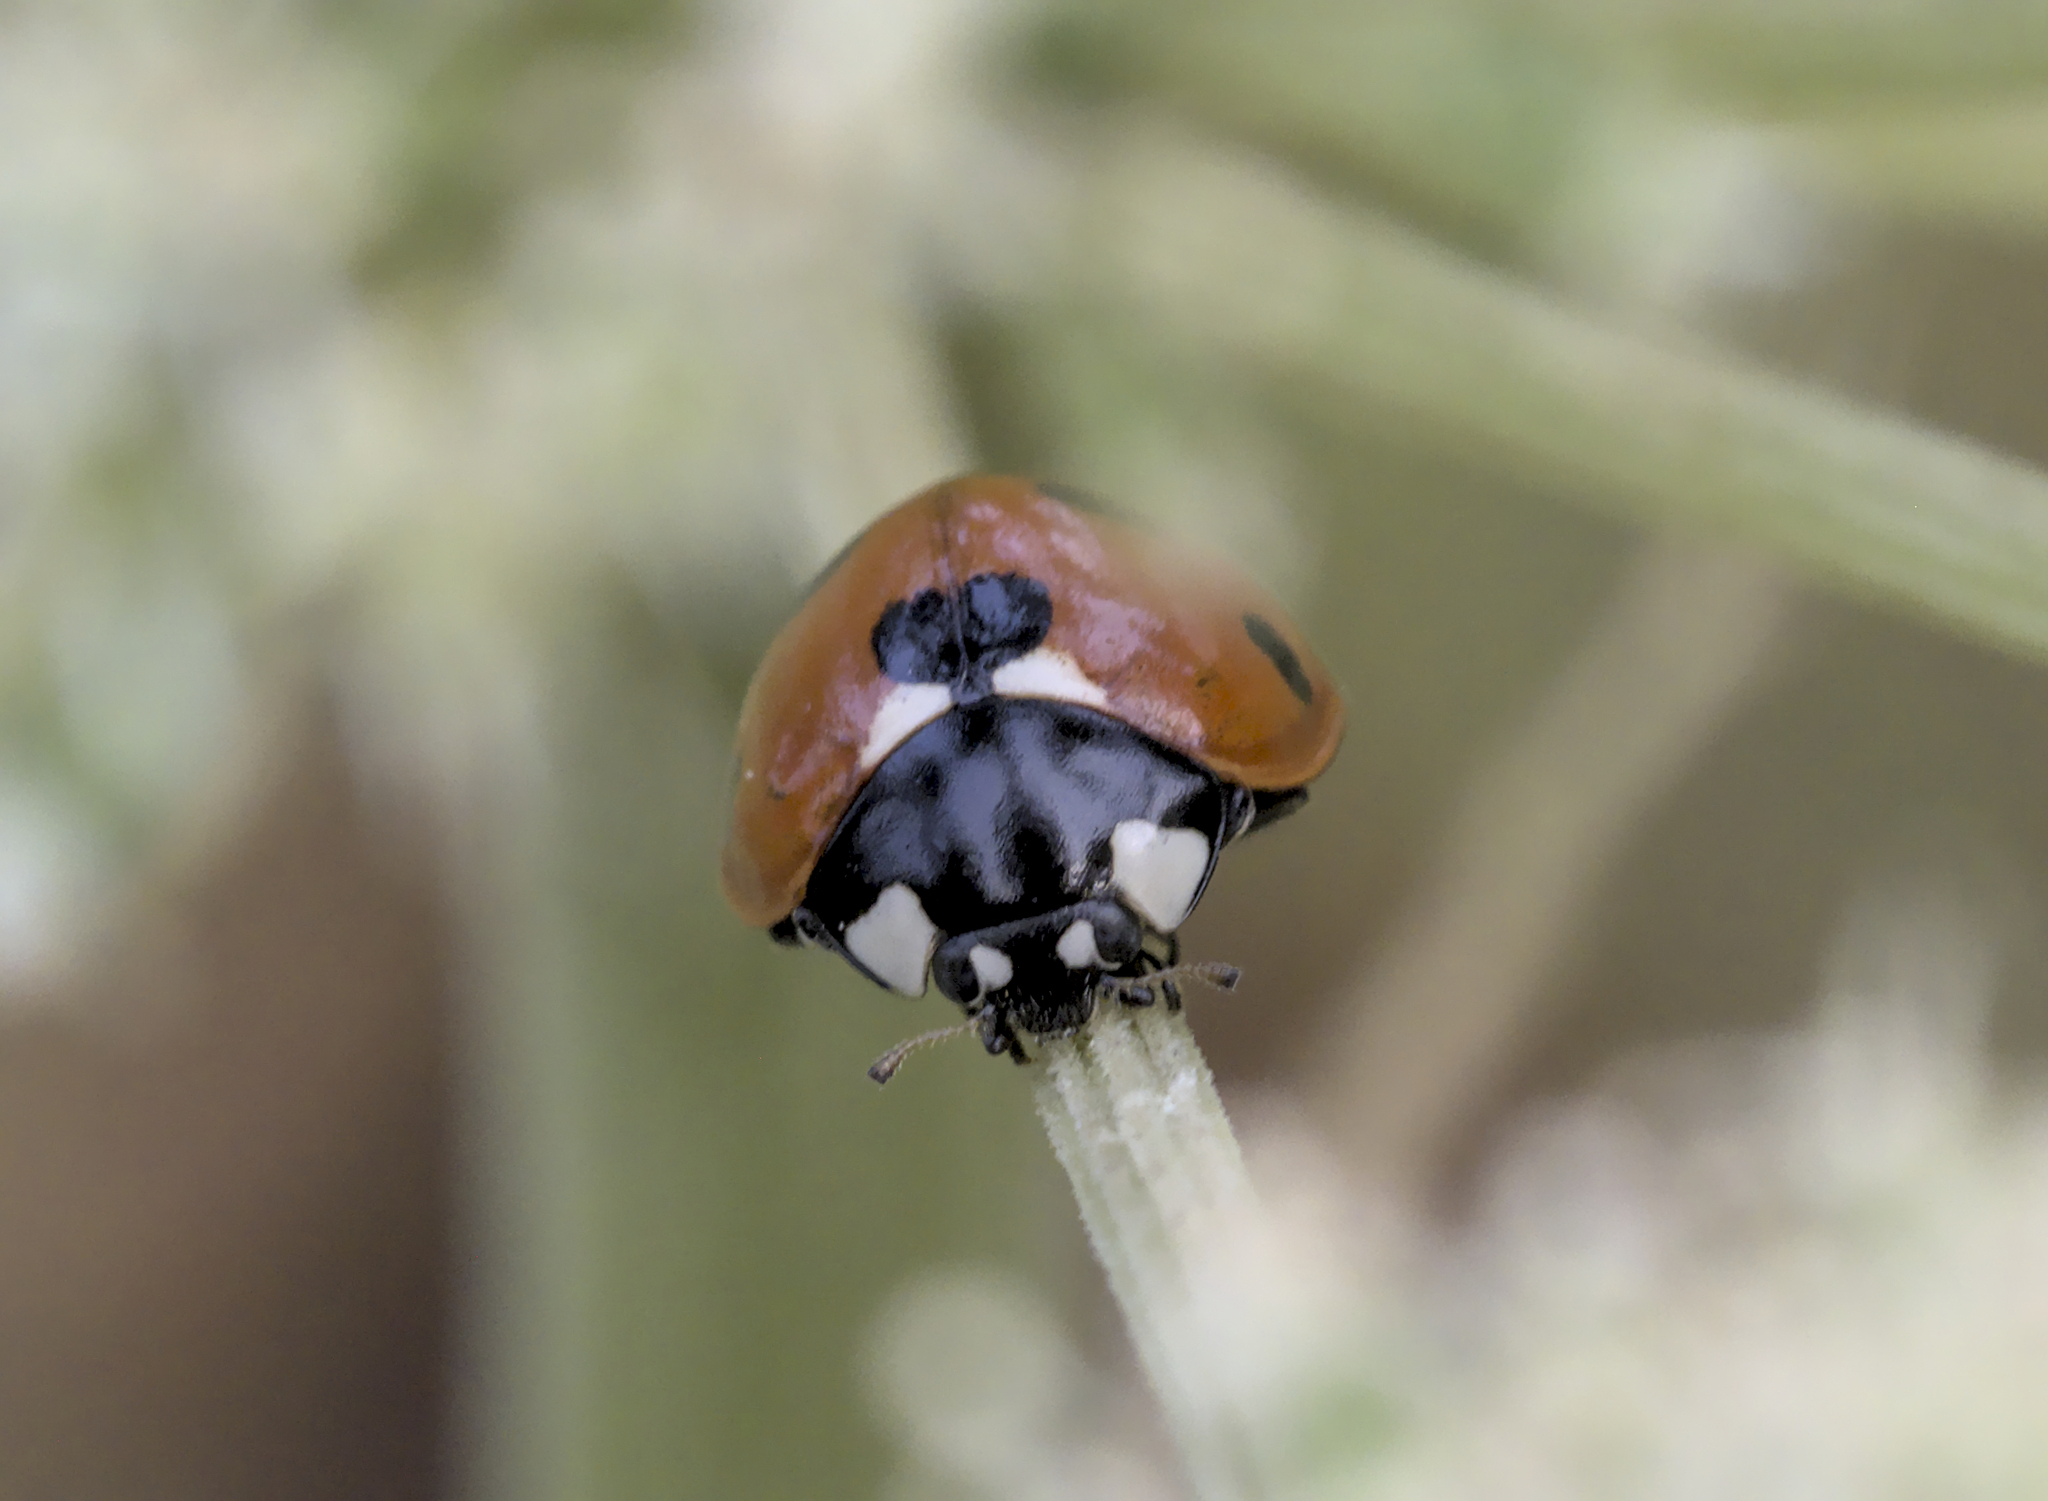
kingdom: Animalia
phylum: Arthropoda
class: Insecta
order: Coleoptera
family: Coccinellidae
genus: Coccinella
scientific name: Coccinella septempunctata
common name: Sevenspotted lady beetle
